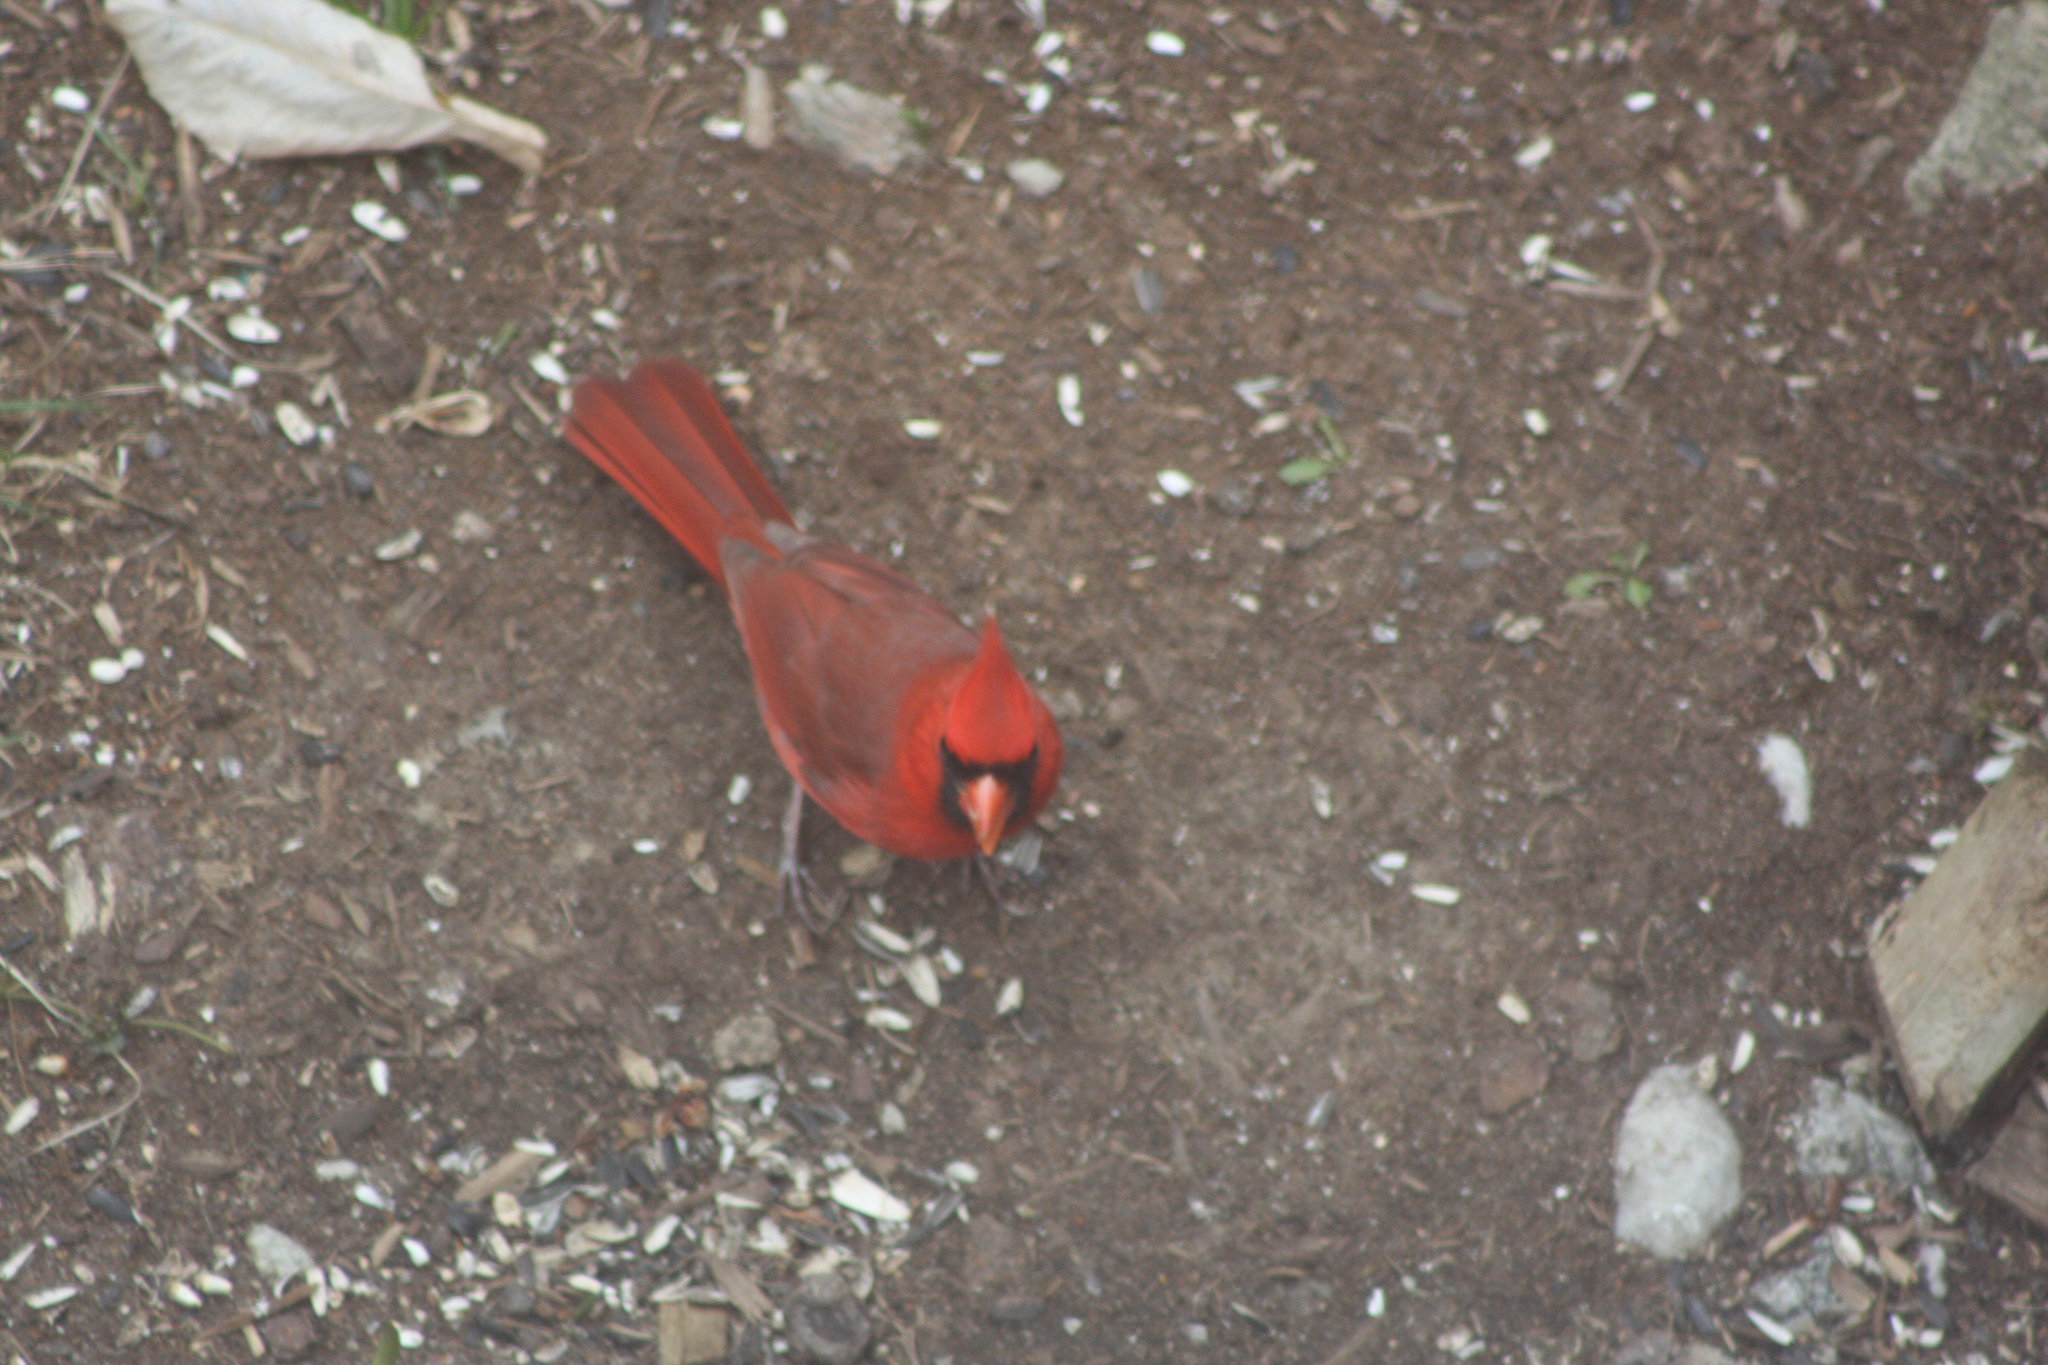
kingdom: Animalia
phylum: Chordata
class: Aves
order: Passeriformes
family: Cardinalidae
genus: Cardinalis
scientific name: Cardinalis cardinalis
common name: Northern cardinal
